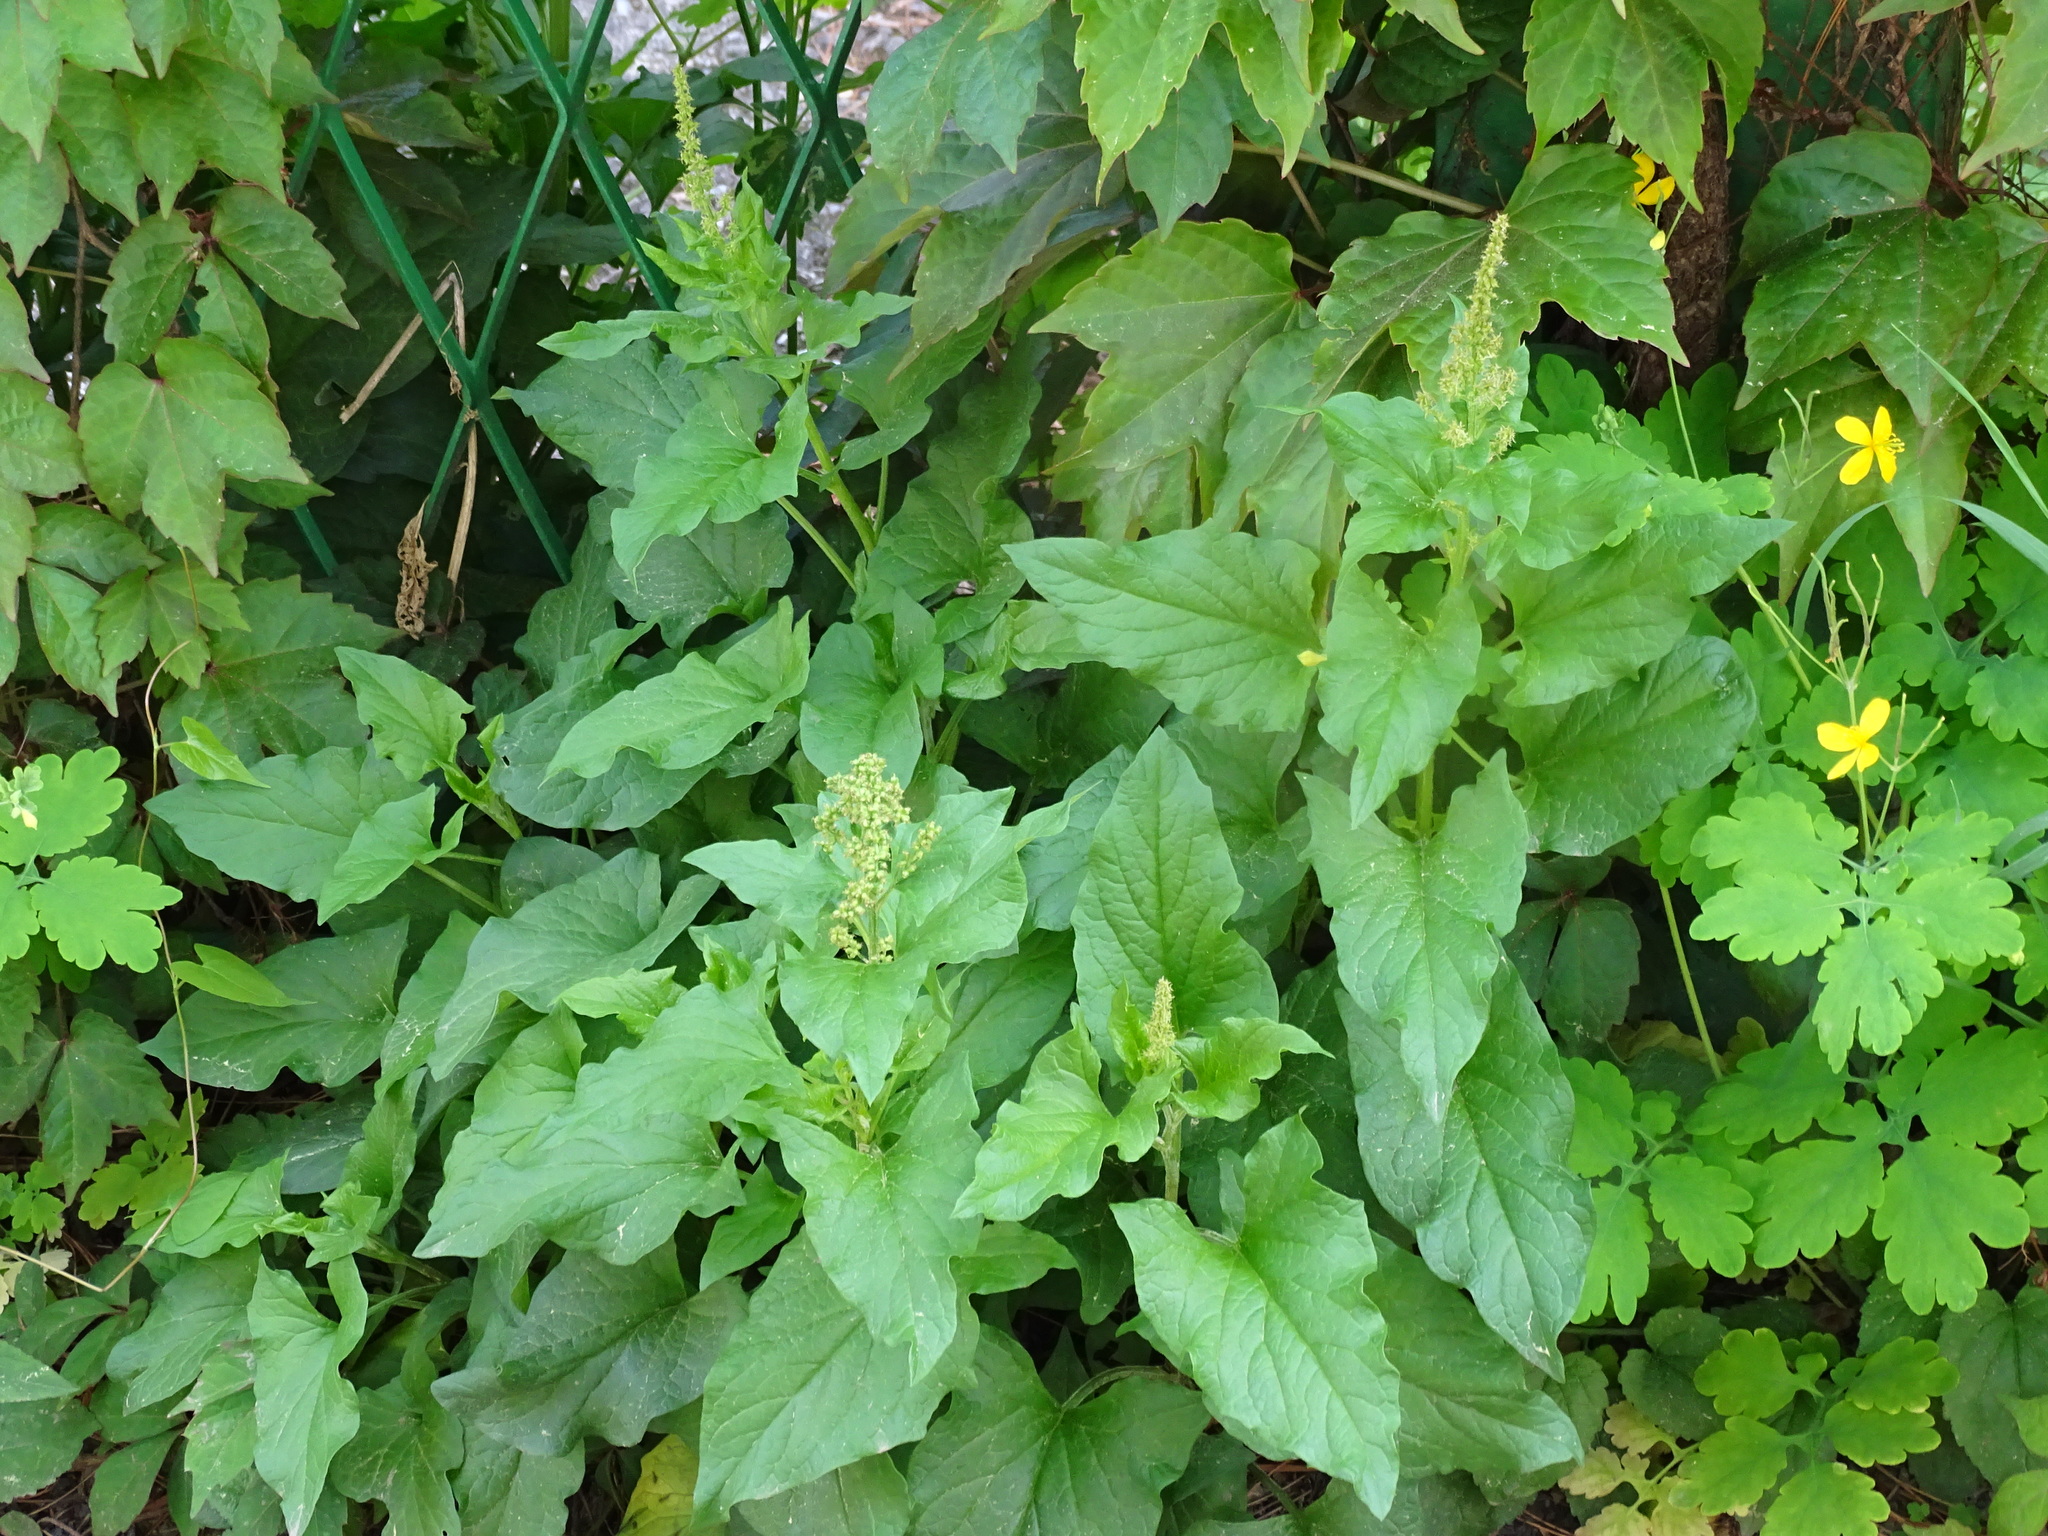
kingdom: Plantae
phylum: Tracheophyta
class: Magnoliopsida
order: Caryophyllales
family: Amaranthaceae
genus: Blitum
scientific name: Blitum bonus-henricus
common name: Good king henry
